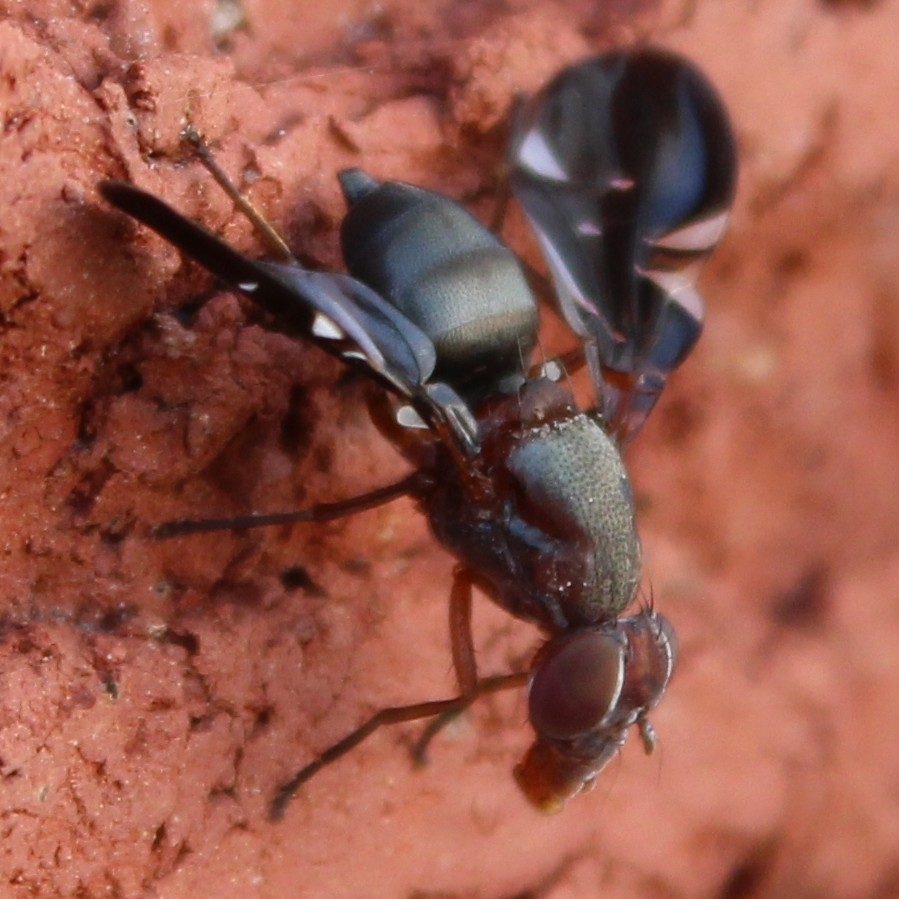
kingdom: Animalia
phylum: Arthropoda
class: Insecta
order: Diptera
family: Ulidiidae
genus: Delphinia
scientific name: Delphinia picta
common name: Common picture-winged fly
